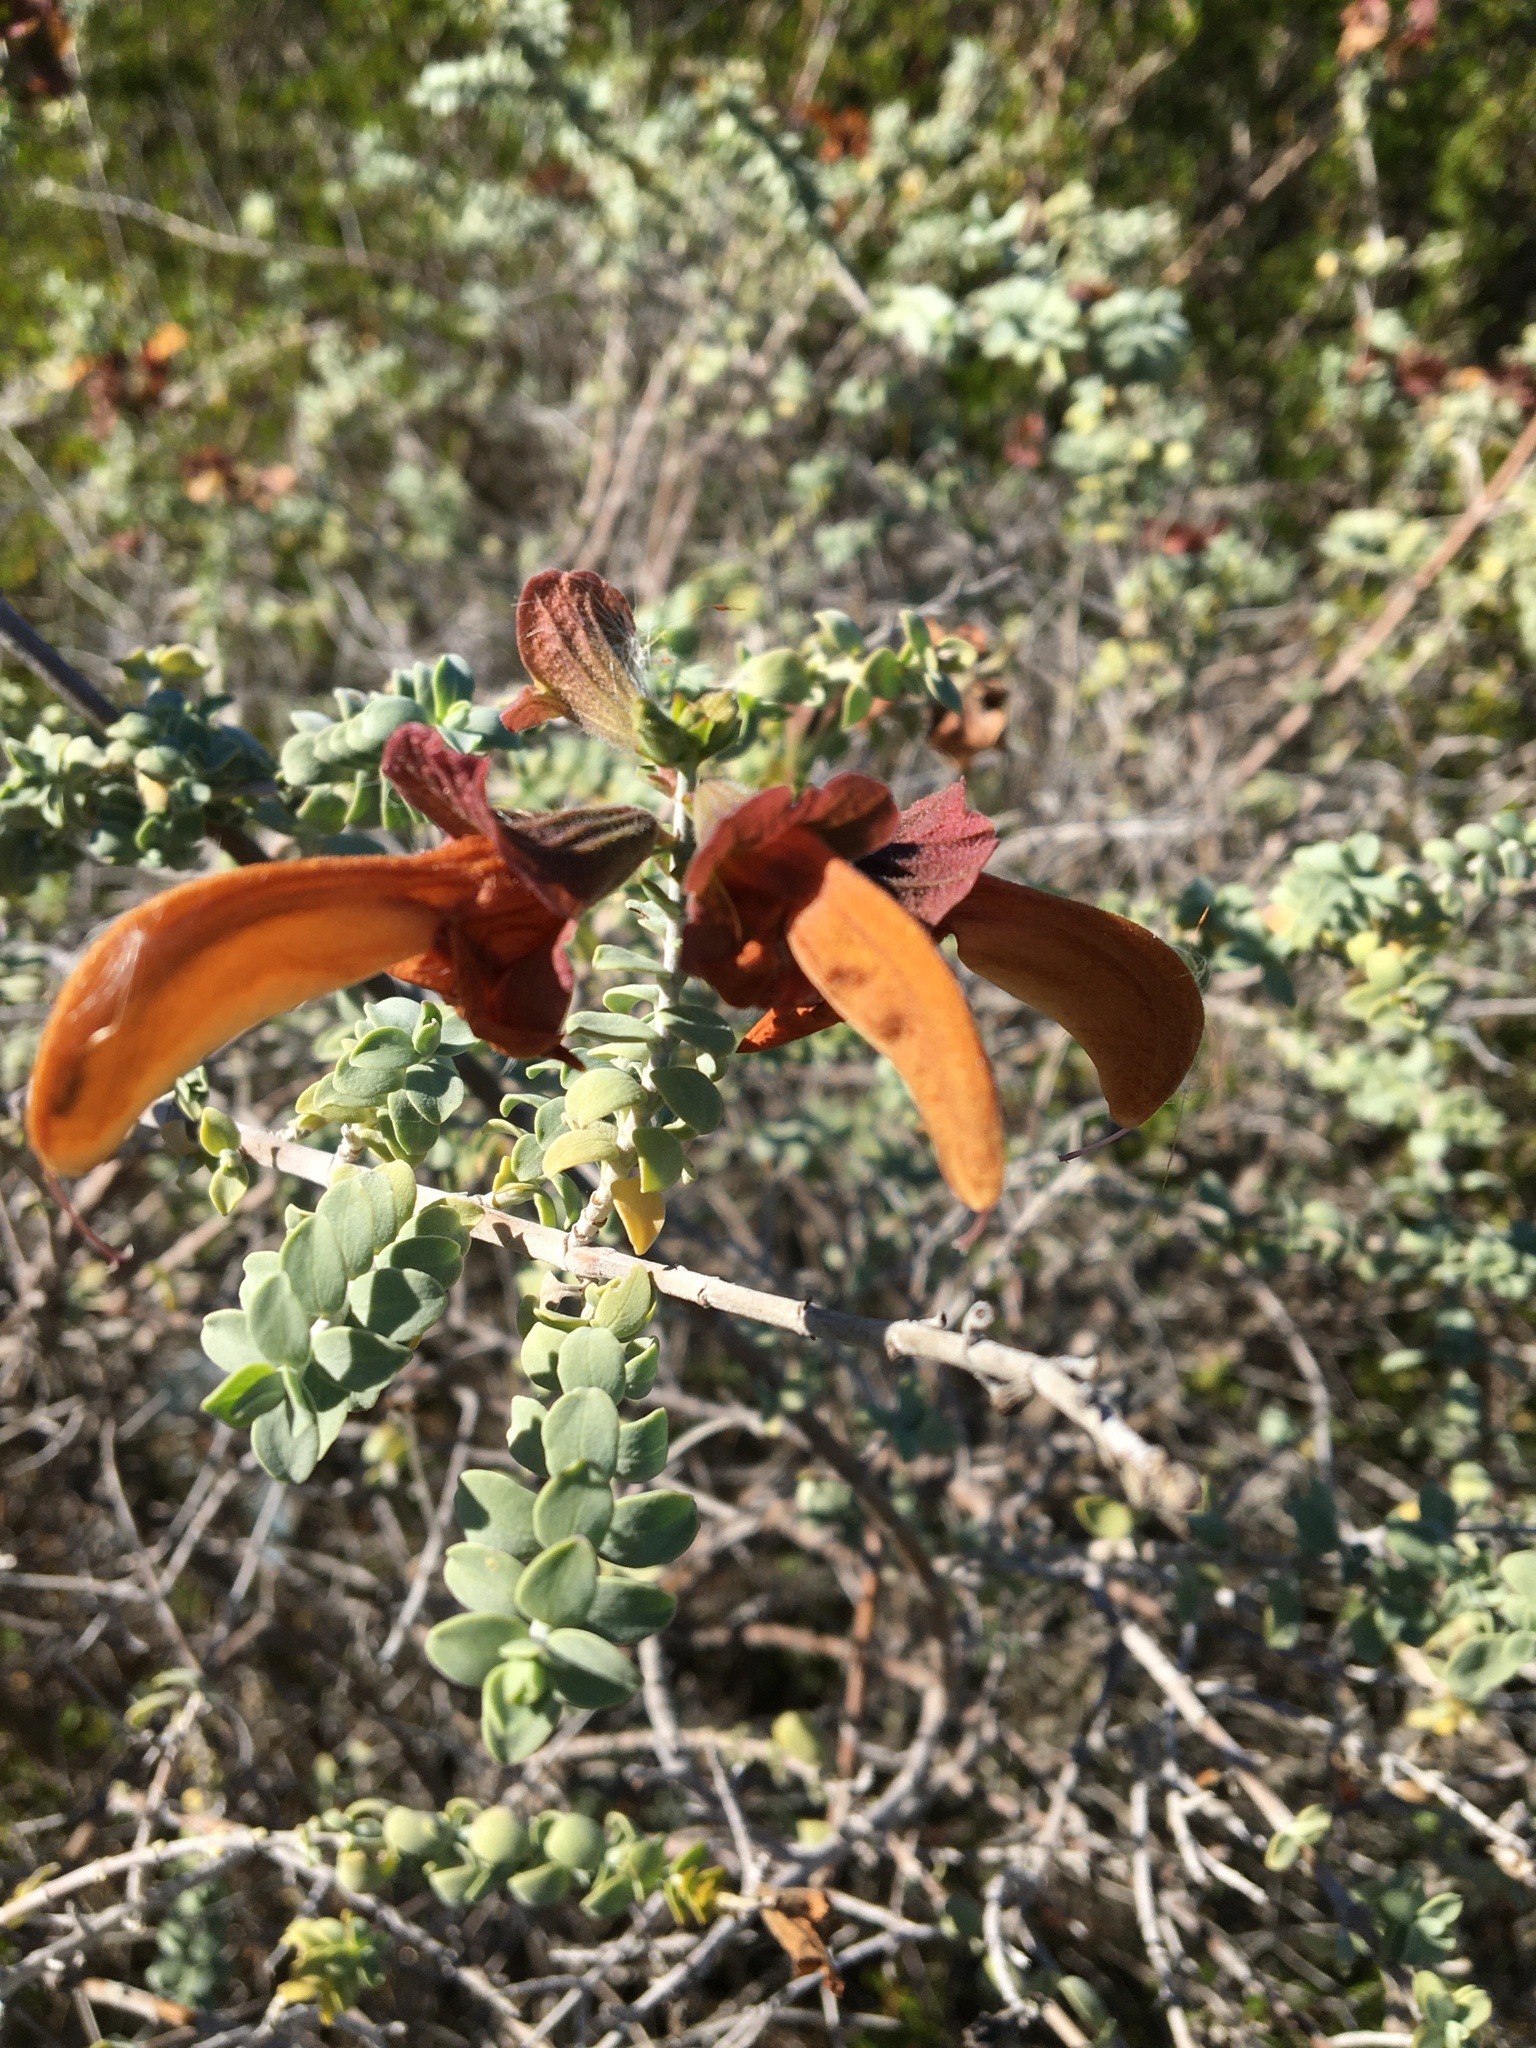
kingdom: Plantae
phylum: Tracheophyta
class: Magnoliopsida
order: Lamiales
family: Lamiaceae
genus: Salvia
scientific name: Salvia aurea
